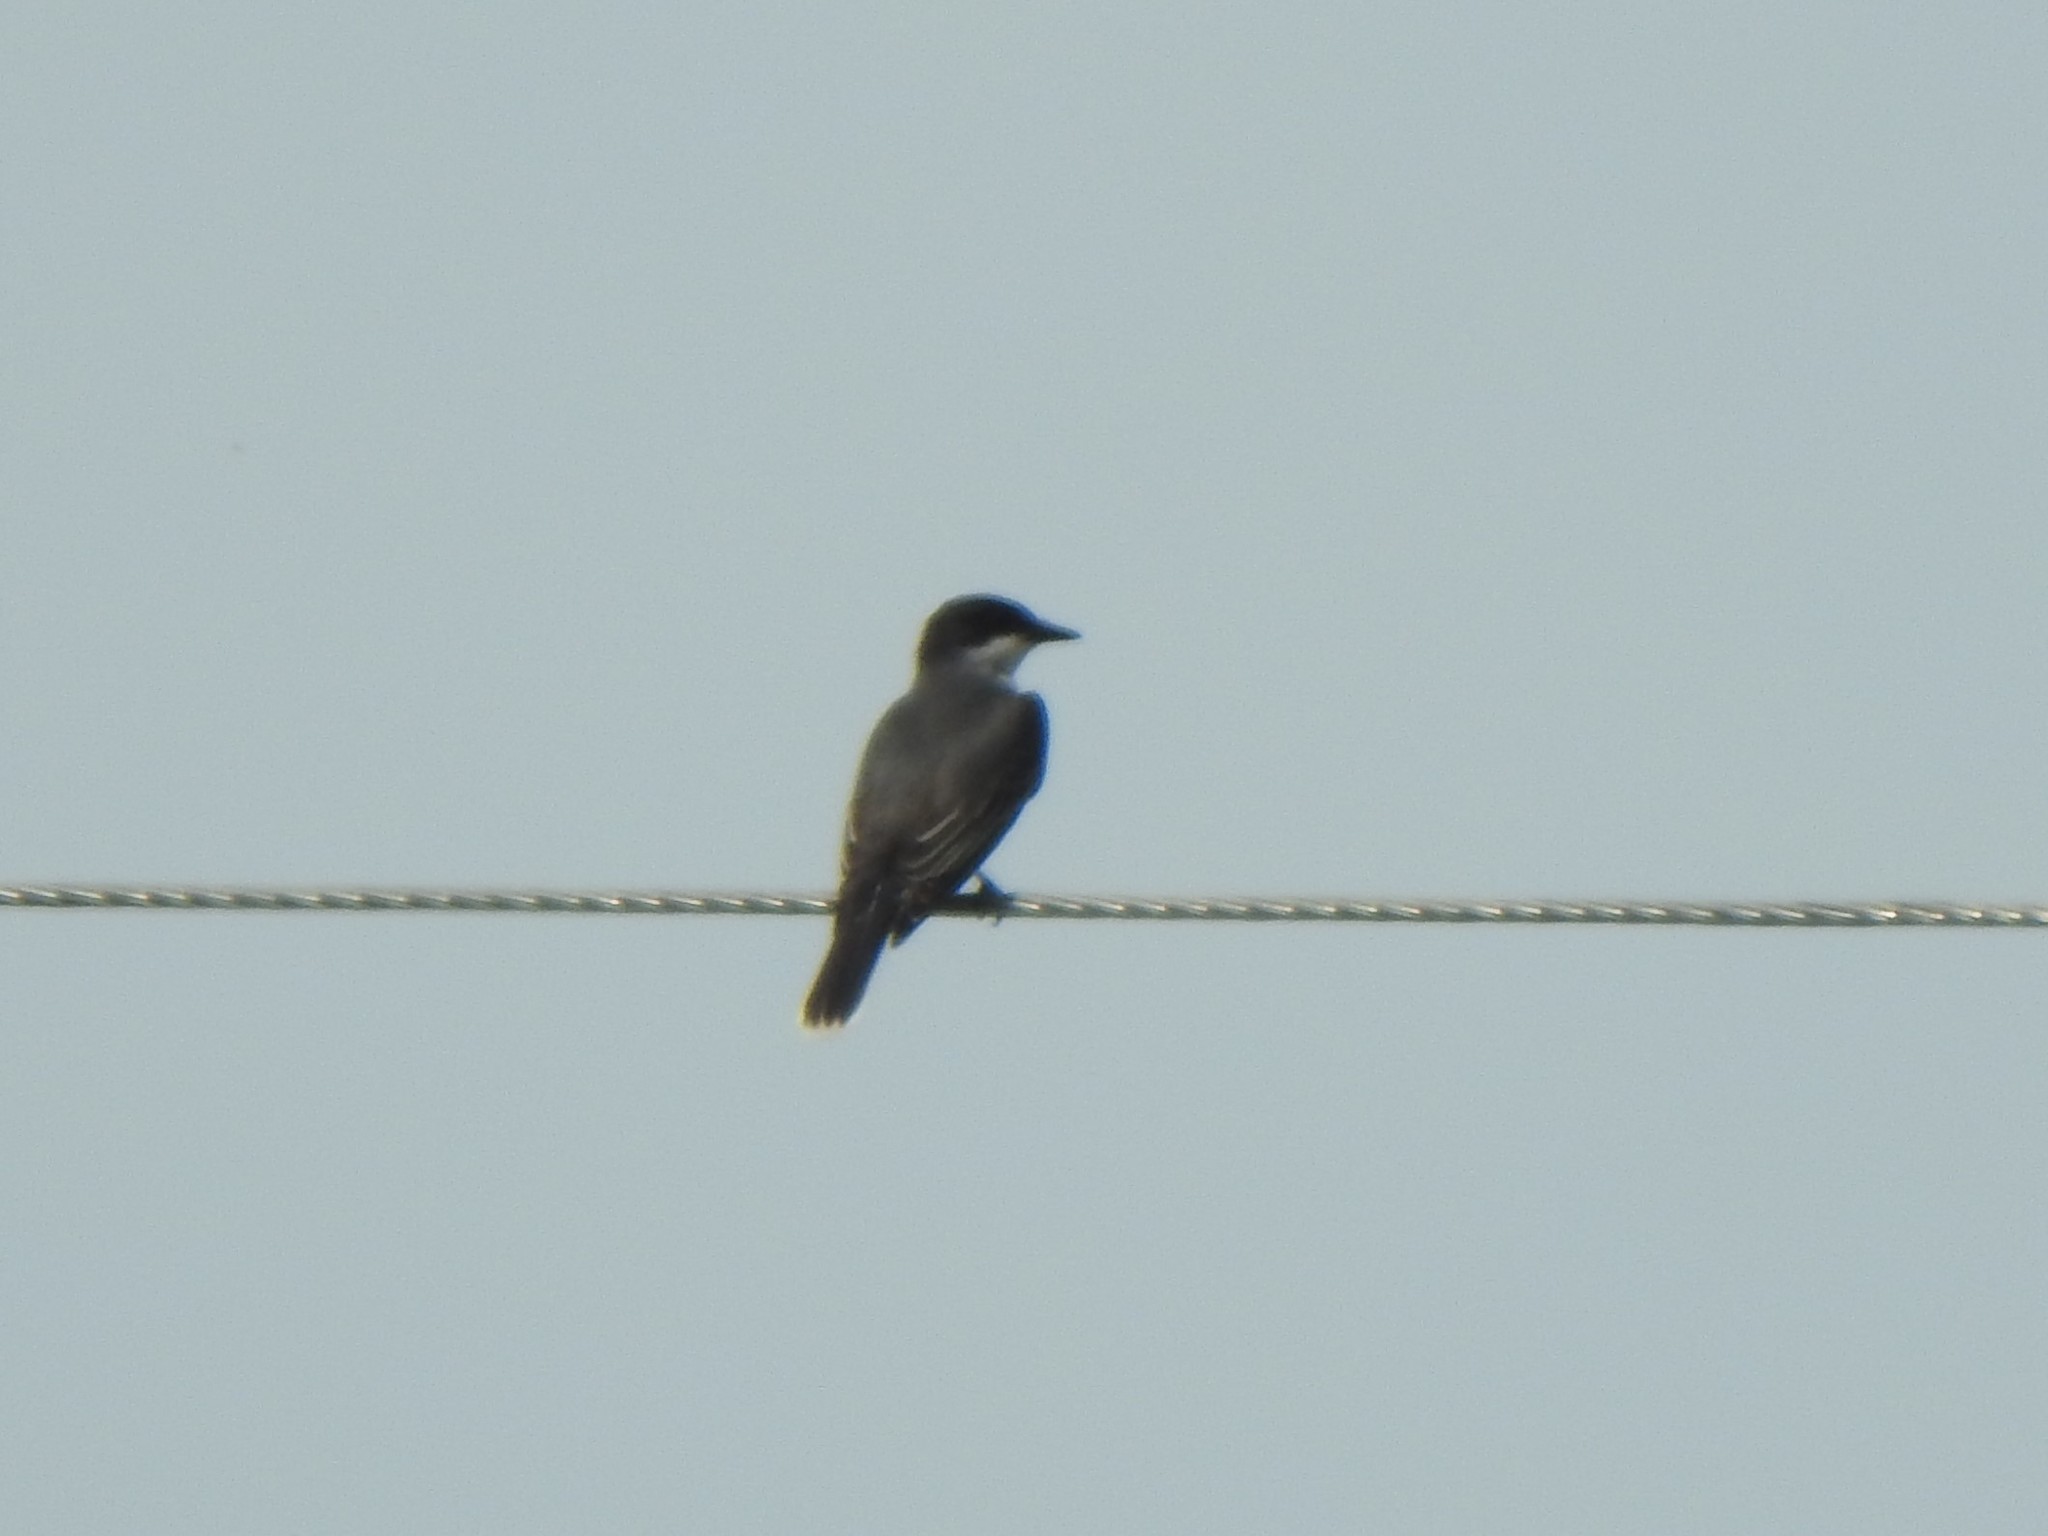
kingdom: Animalia
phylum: Chordata
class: Aves
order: Passeriformes
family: Tyrannidae
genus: Tyrannus
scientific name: Tyrannus tyrannus
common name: Eastern kingbird
